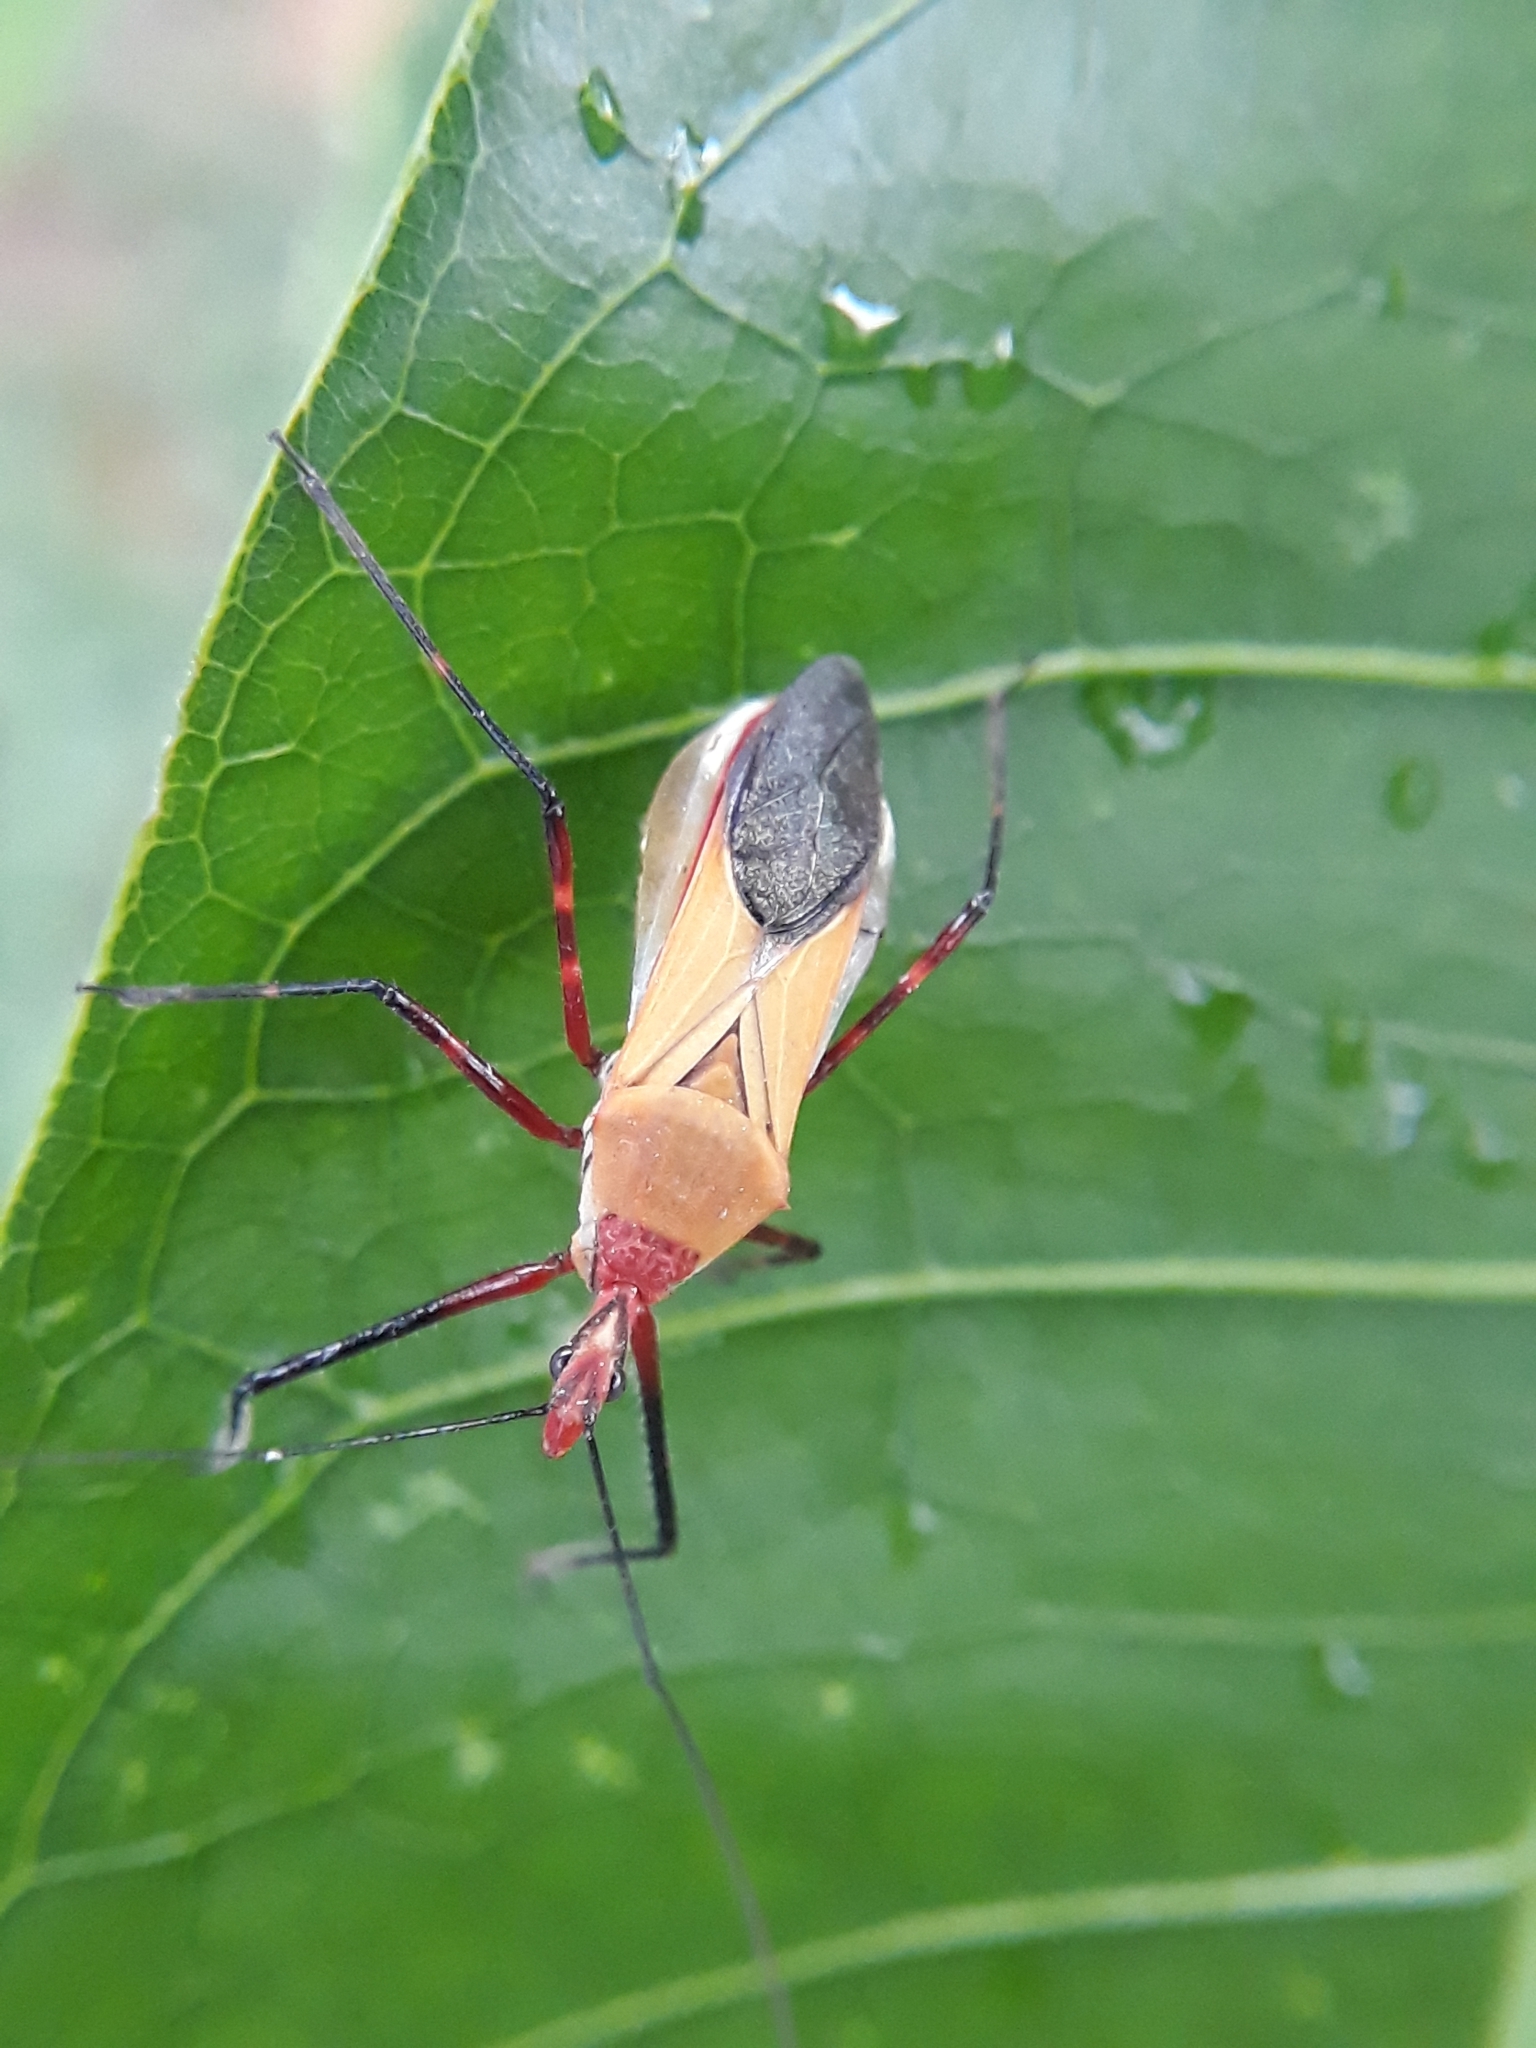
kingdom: Animalia
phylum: Arthropoda
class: Insecta
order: Hemiptera
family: Reduviidae
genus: Zelus
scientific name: Zelus laticornis
